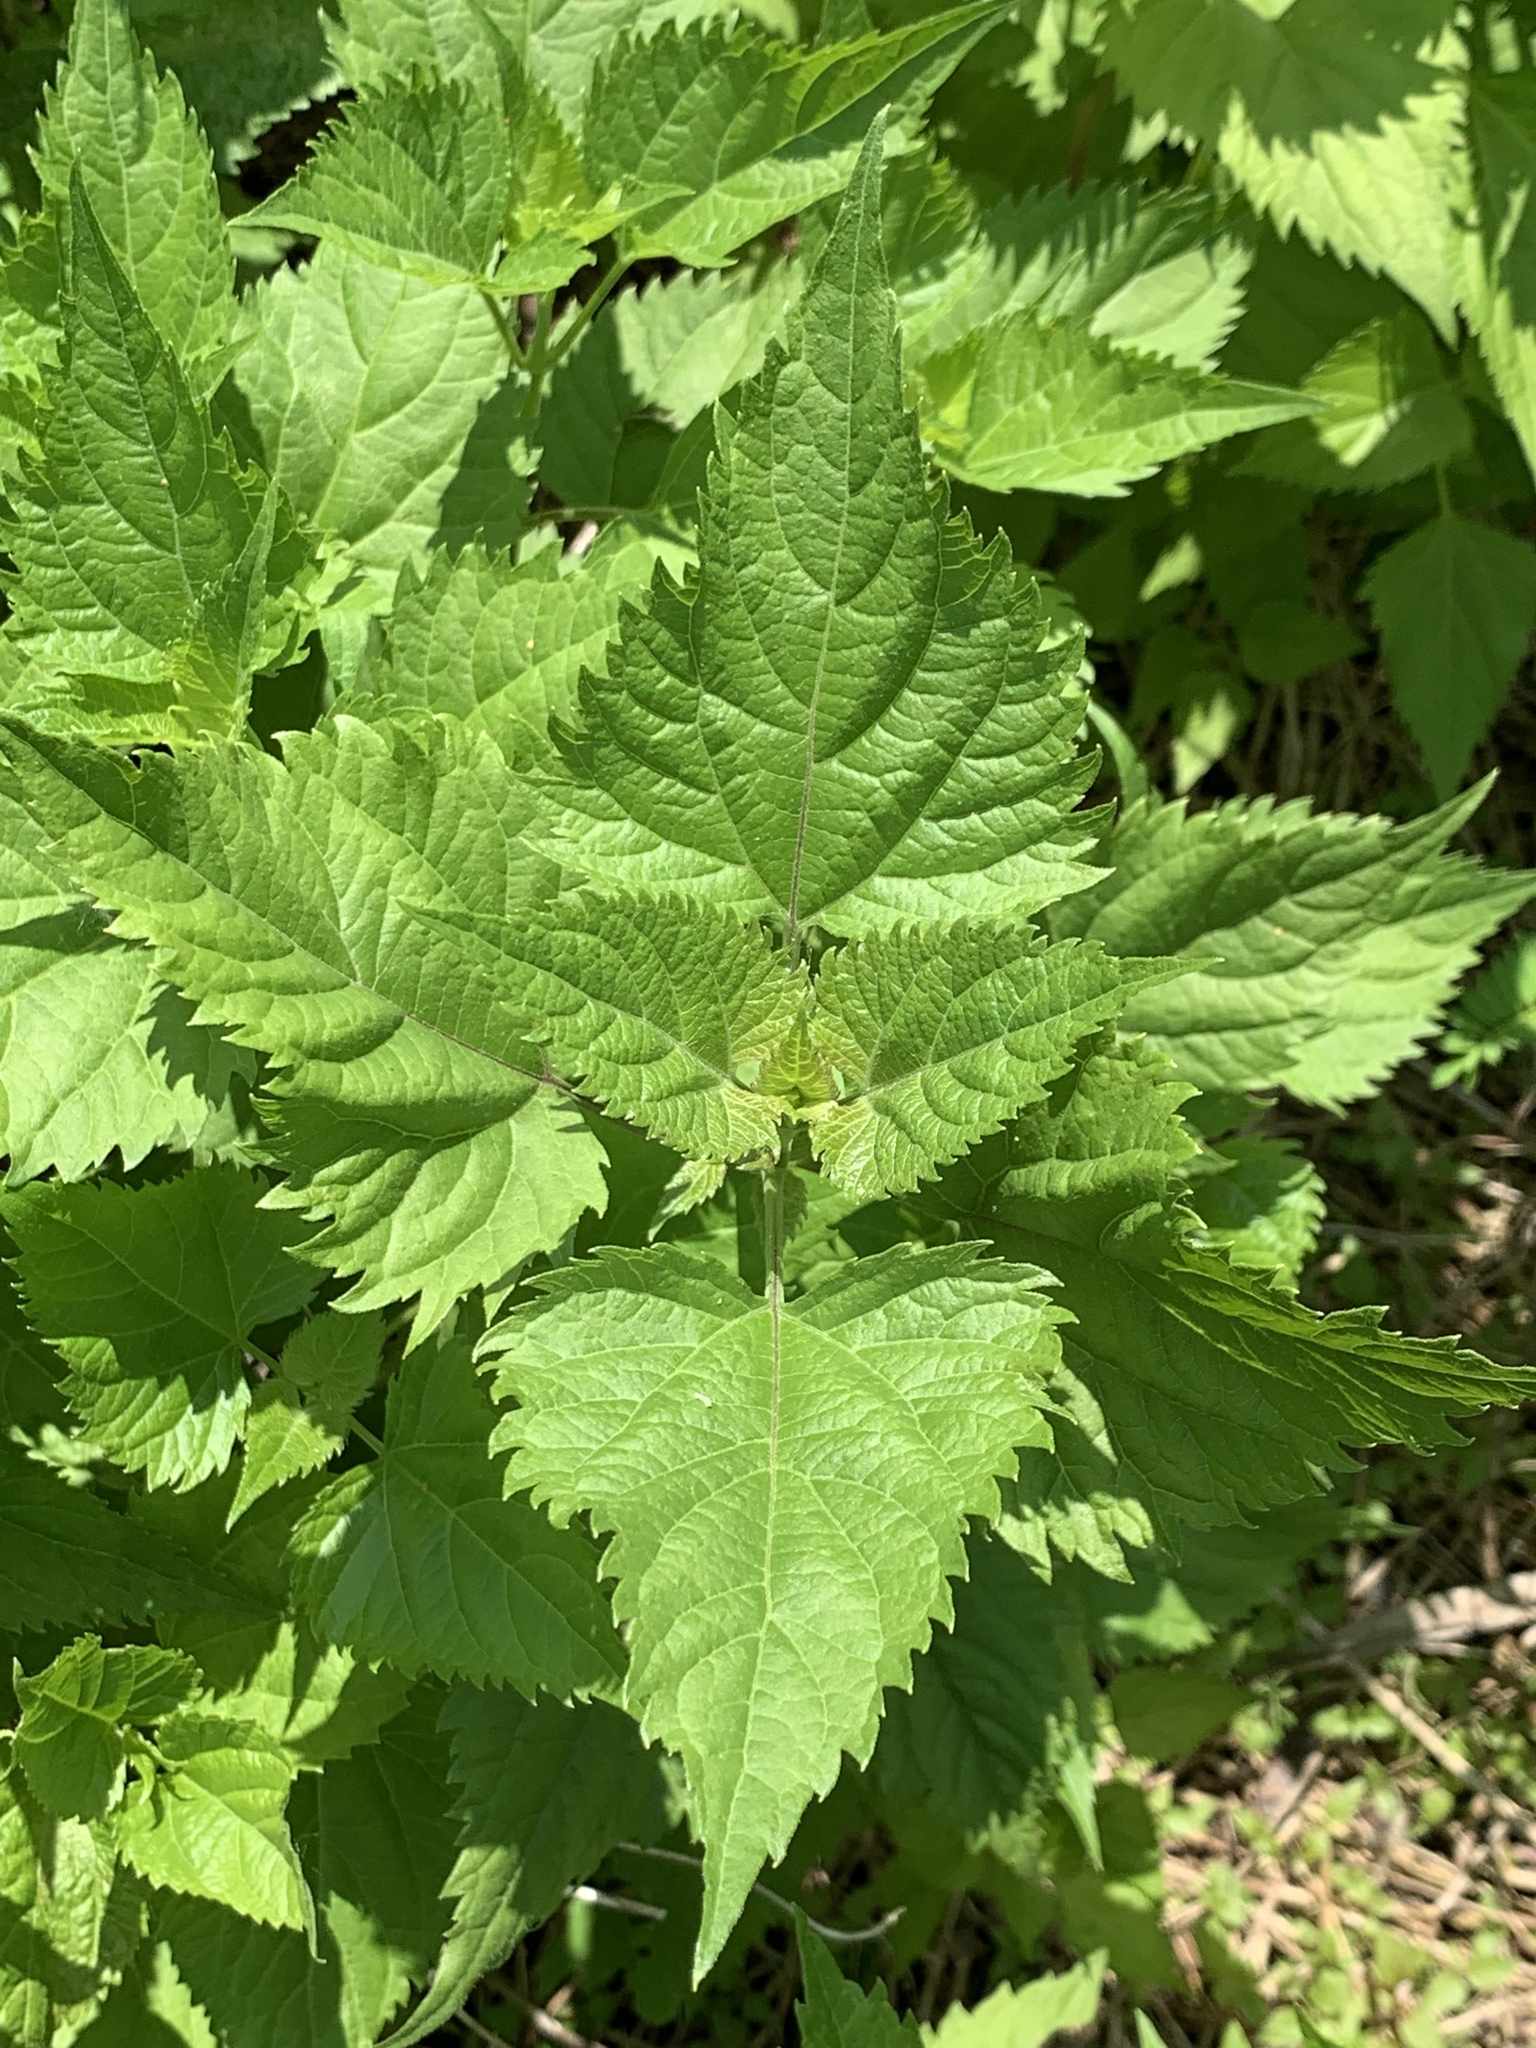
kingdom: Plantae
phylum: Tracheophyta
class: Magnoliopsida
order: Asterales
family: Asteraceae
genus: Ageratina
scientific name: Ageratina altissima
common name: White snakeroot
